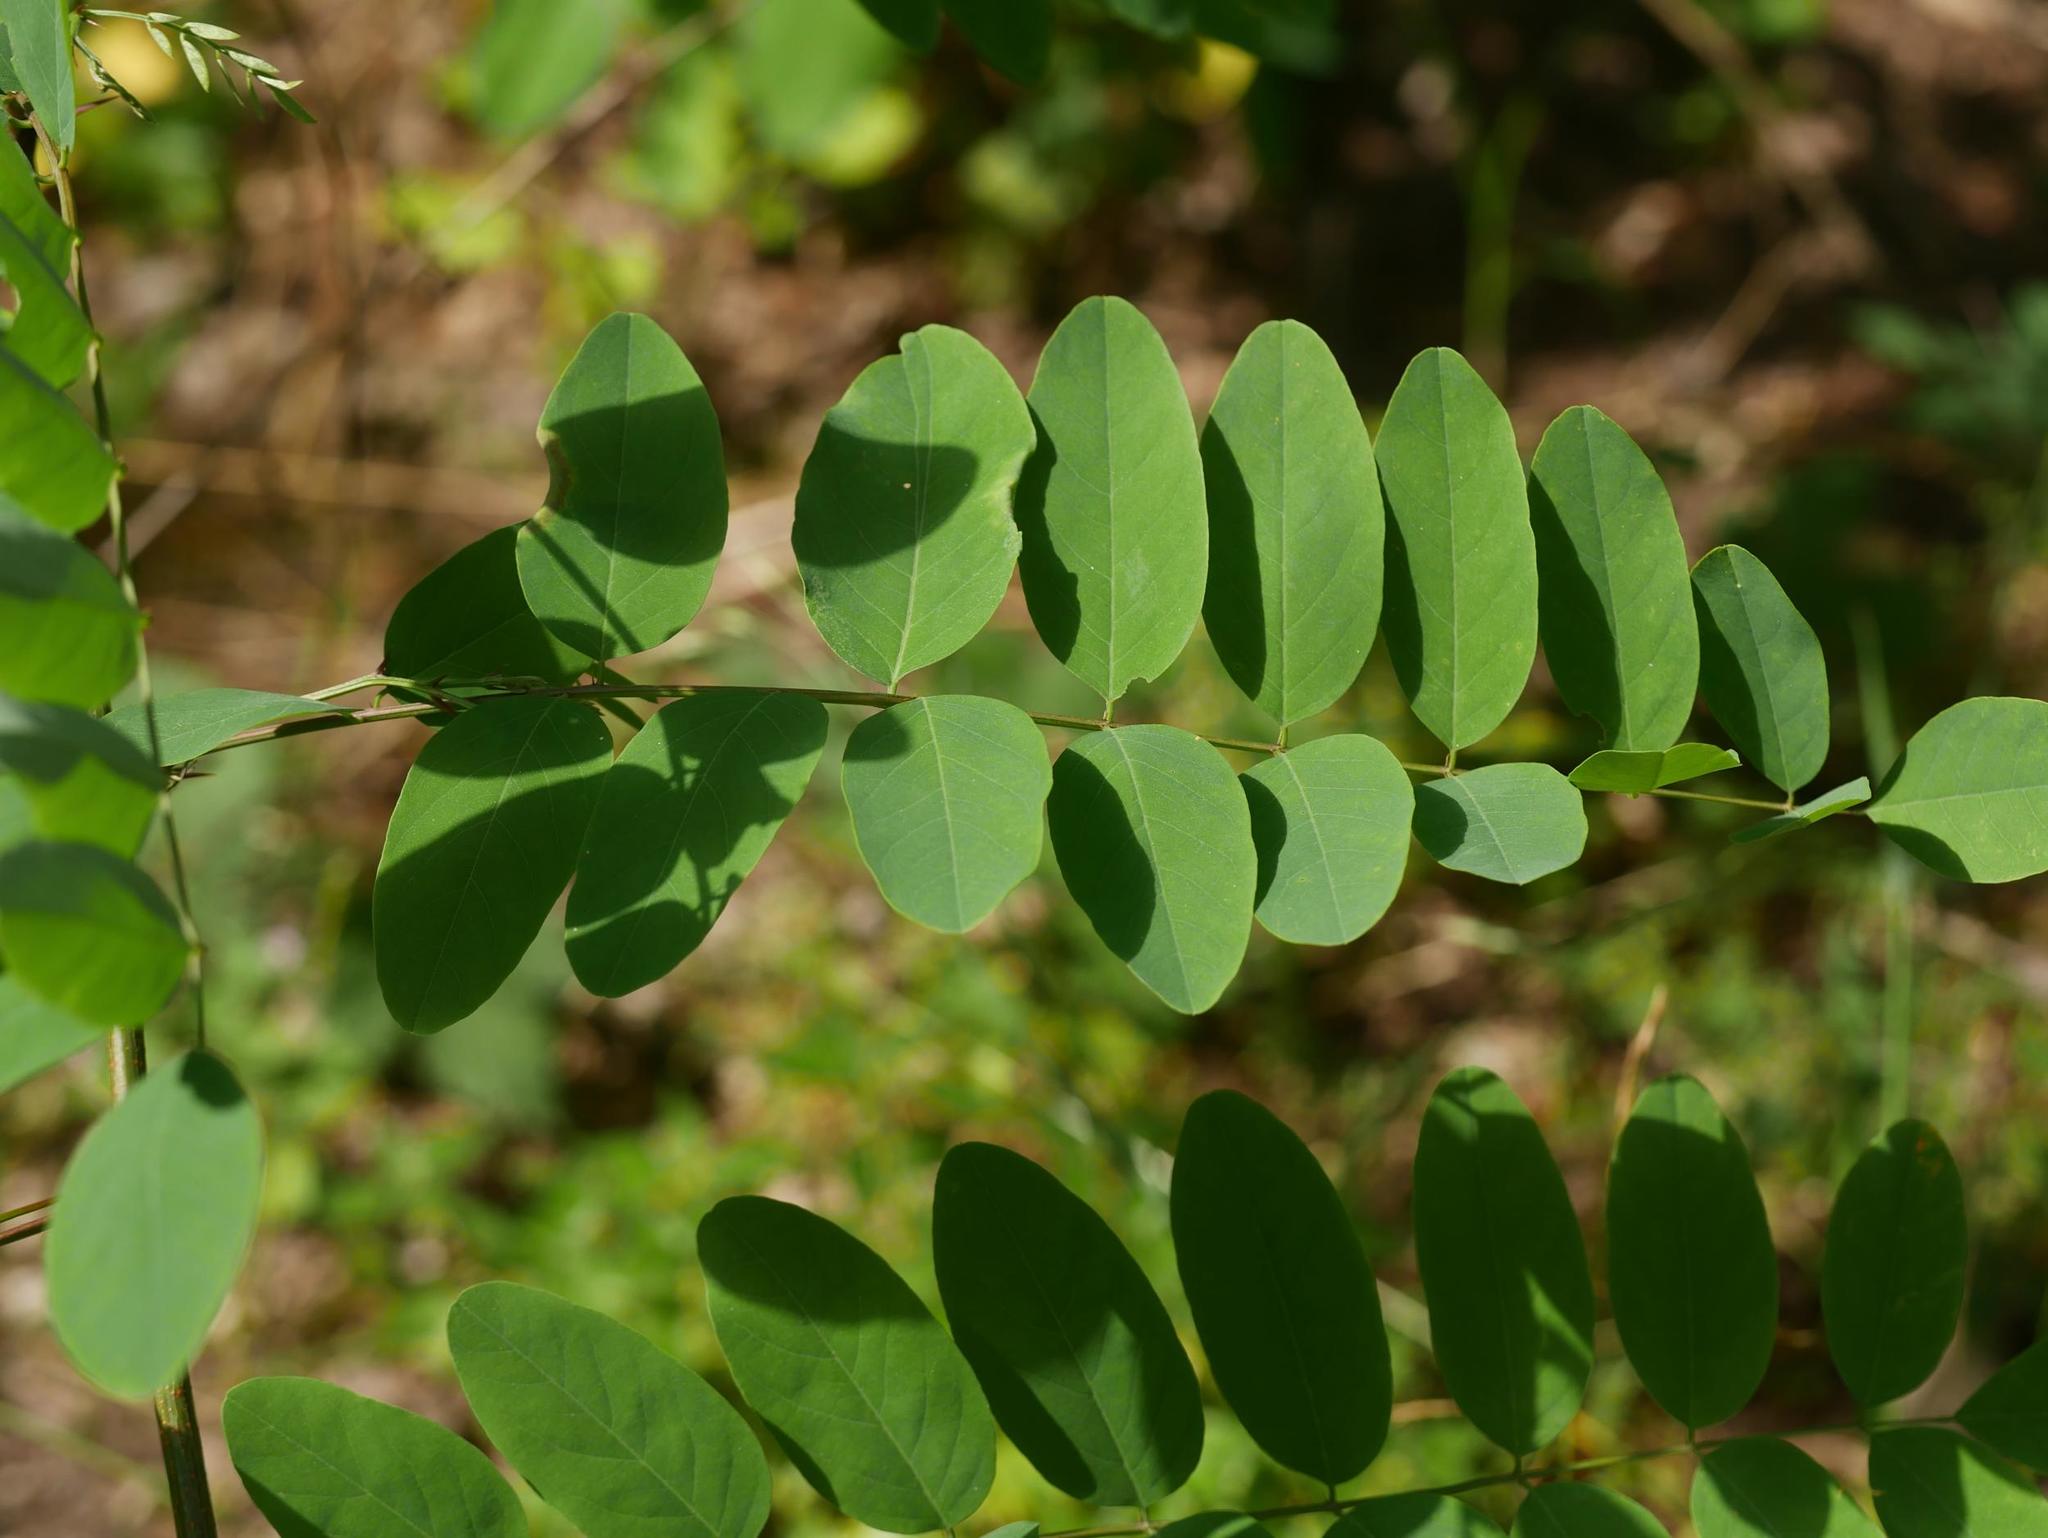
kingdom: Plantae
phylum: Tracheophyta
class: Magnoliopsida
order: Fabales
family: Fabaceae
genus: Robinia
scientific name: Robinia pseudoacacia
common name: Black locust
